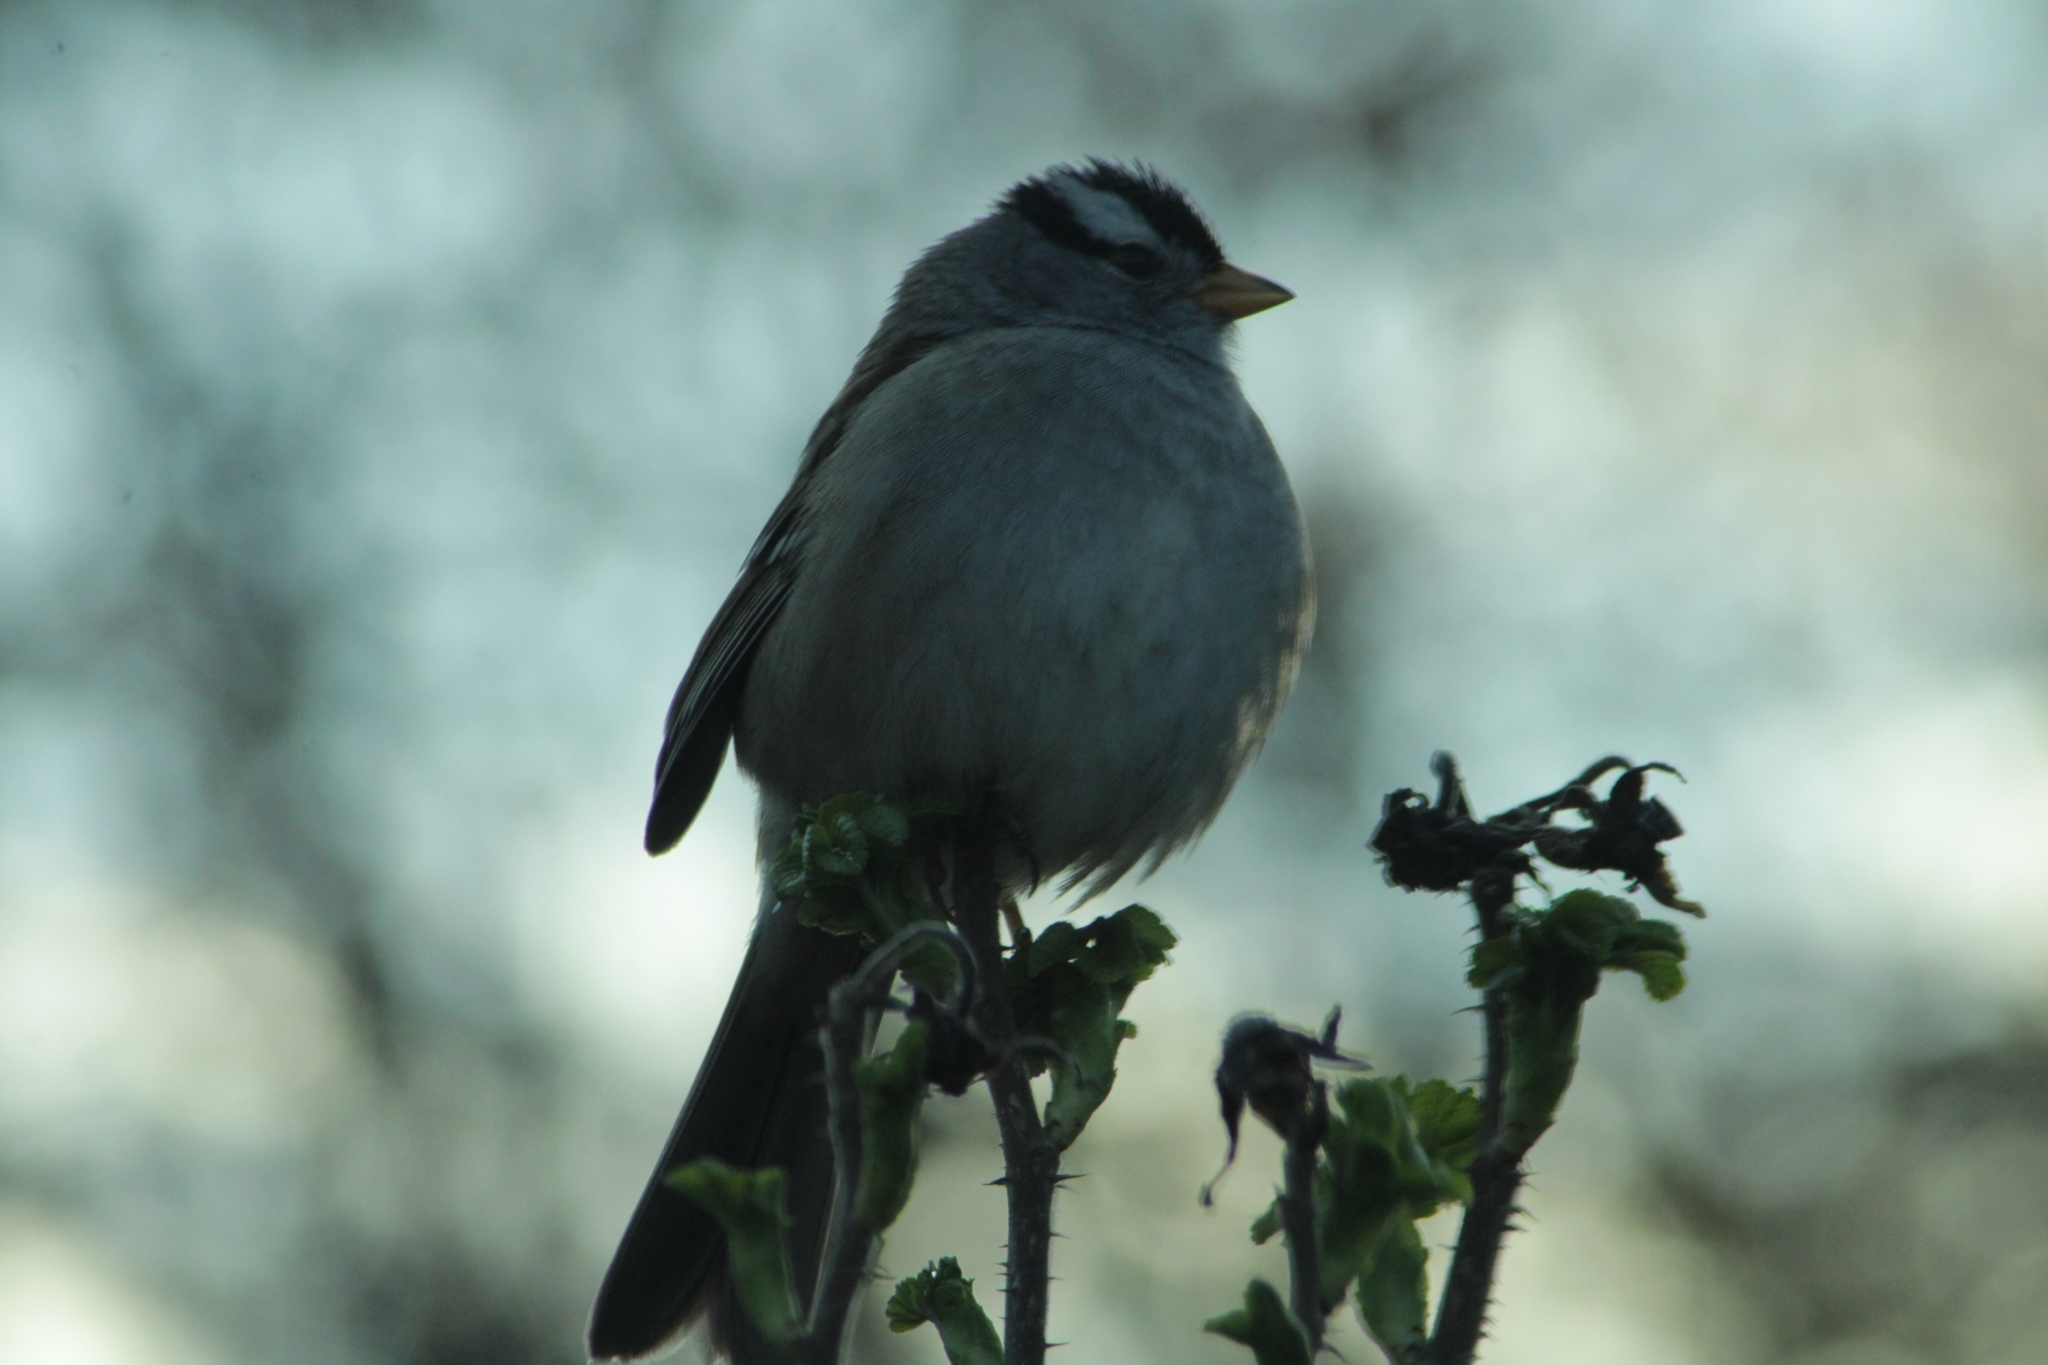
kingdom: Animalia
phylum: Chordata
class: Aves
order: Passeriformes
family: Passerellidae
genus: Zonotrichia
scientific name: Zonotrichia leucophrys
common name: White-crowned sparrow
